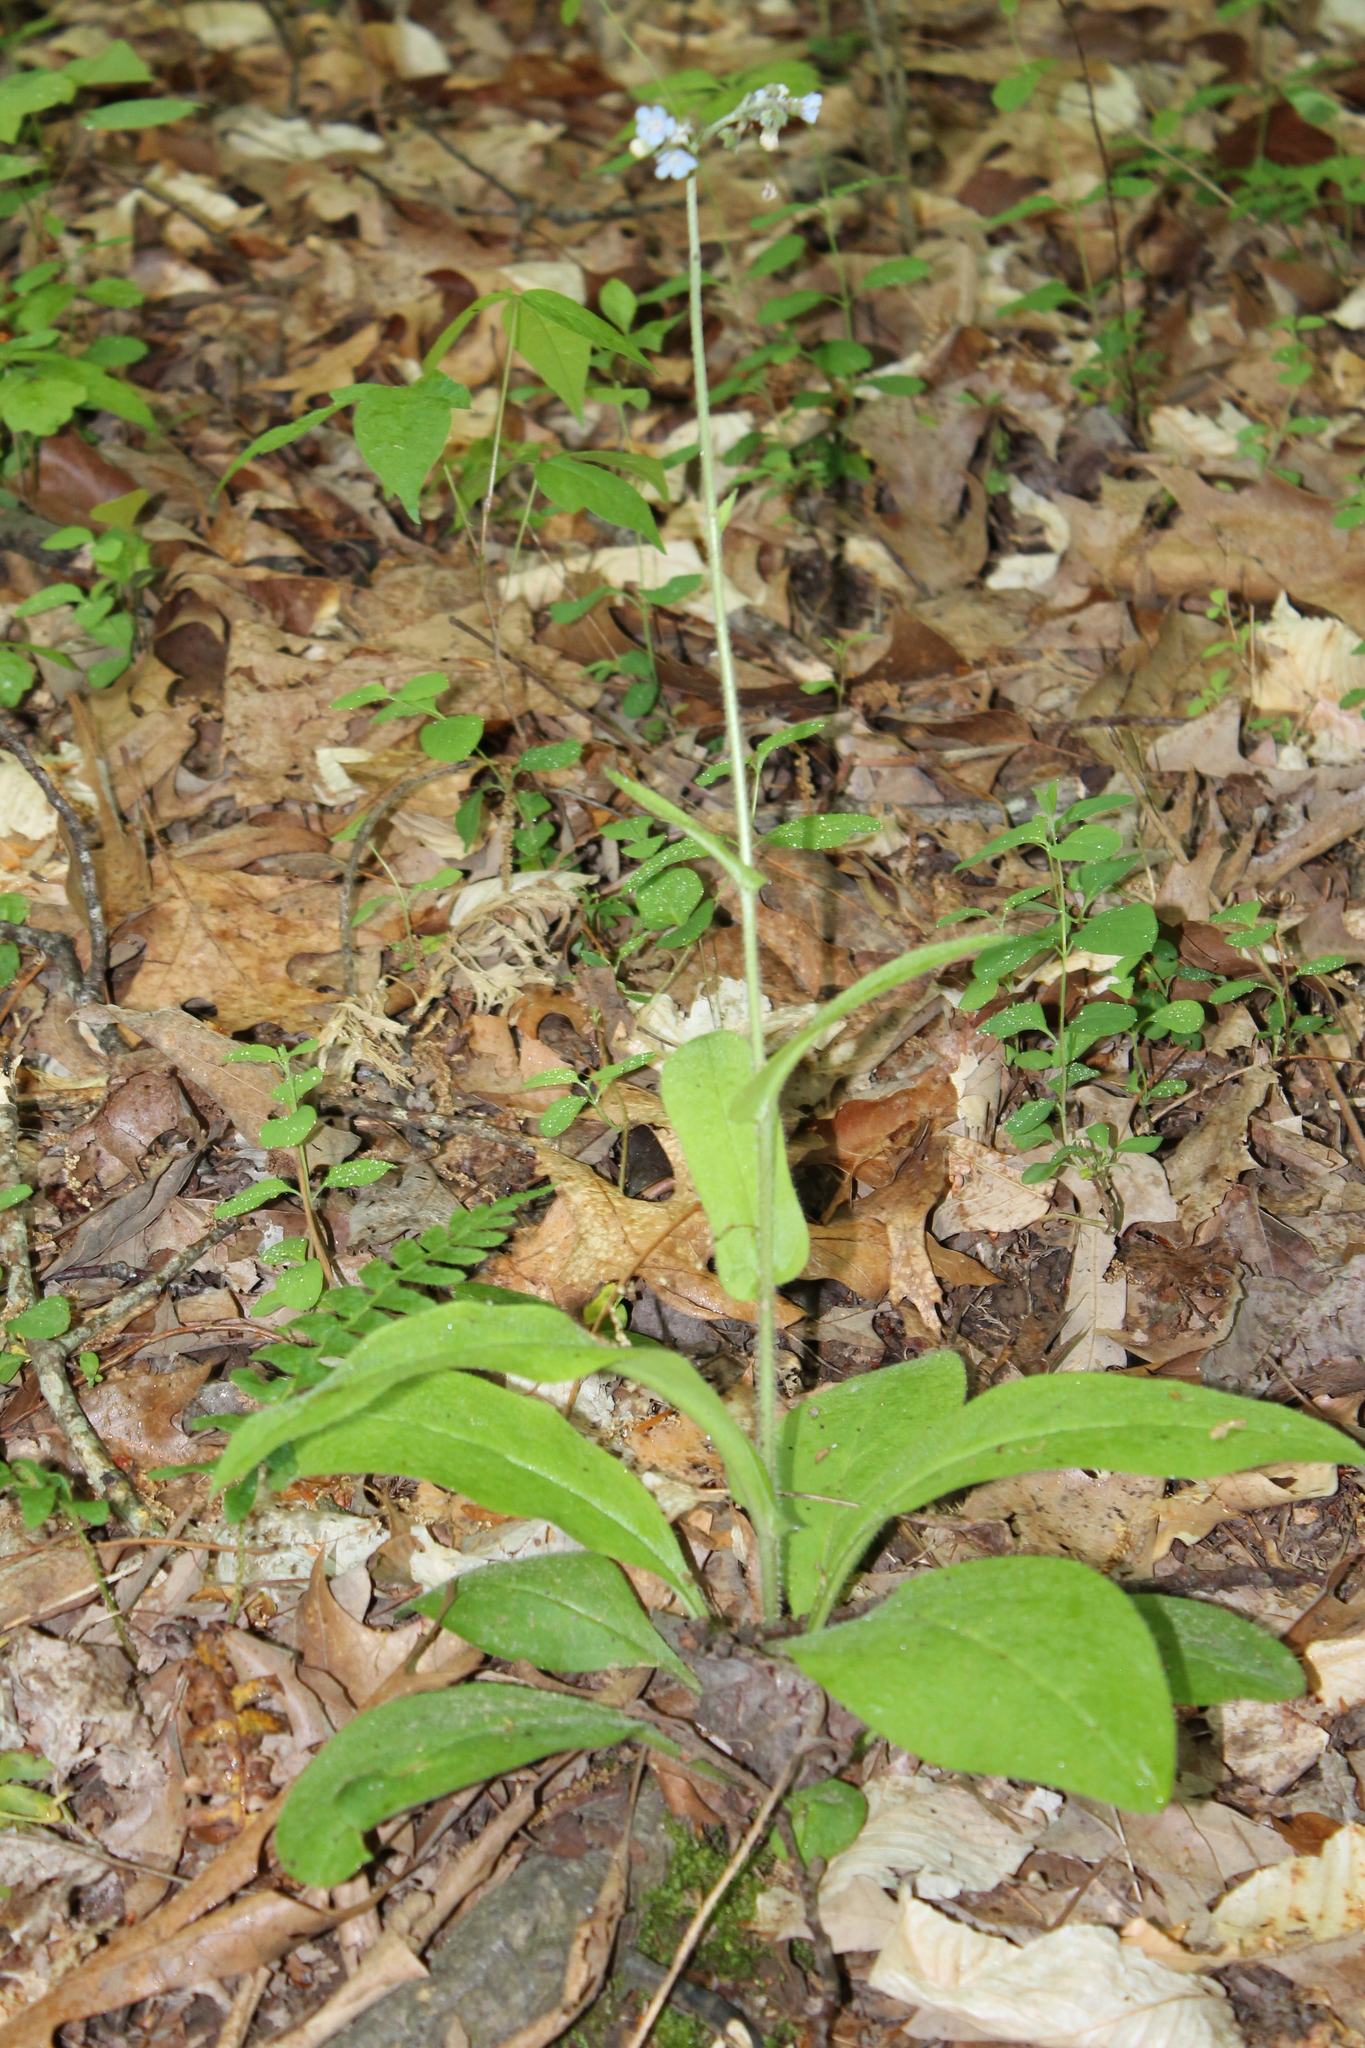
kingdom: Plantae
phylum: Tracheophyta
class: Magnoliopsida
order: Boraginales
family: Boraginaceae
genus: Andersonglossum
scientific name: Andersonglossum virginianum
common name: Wild comfrey
